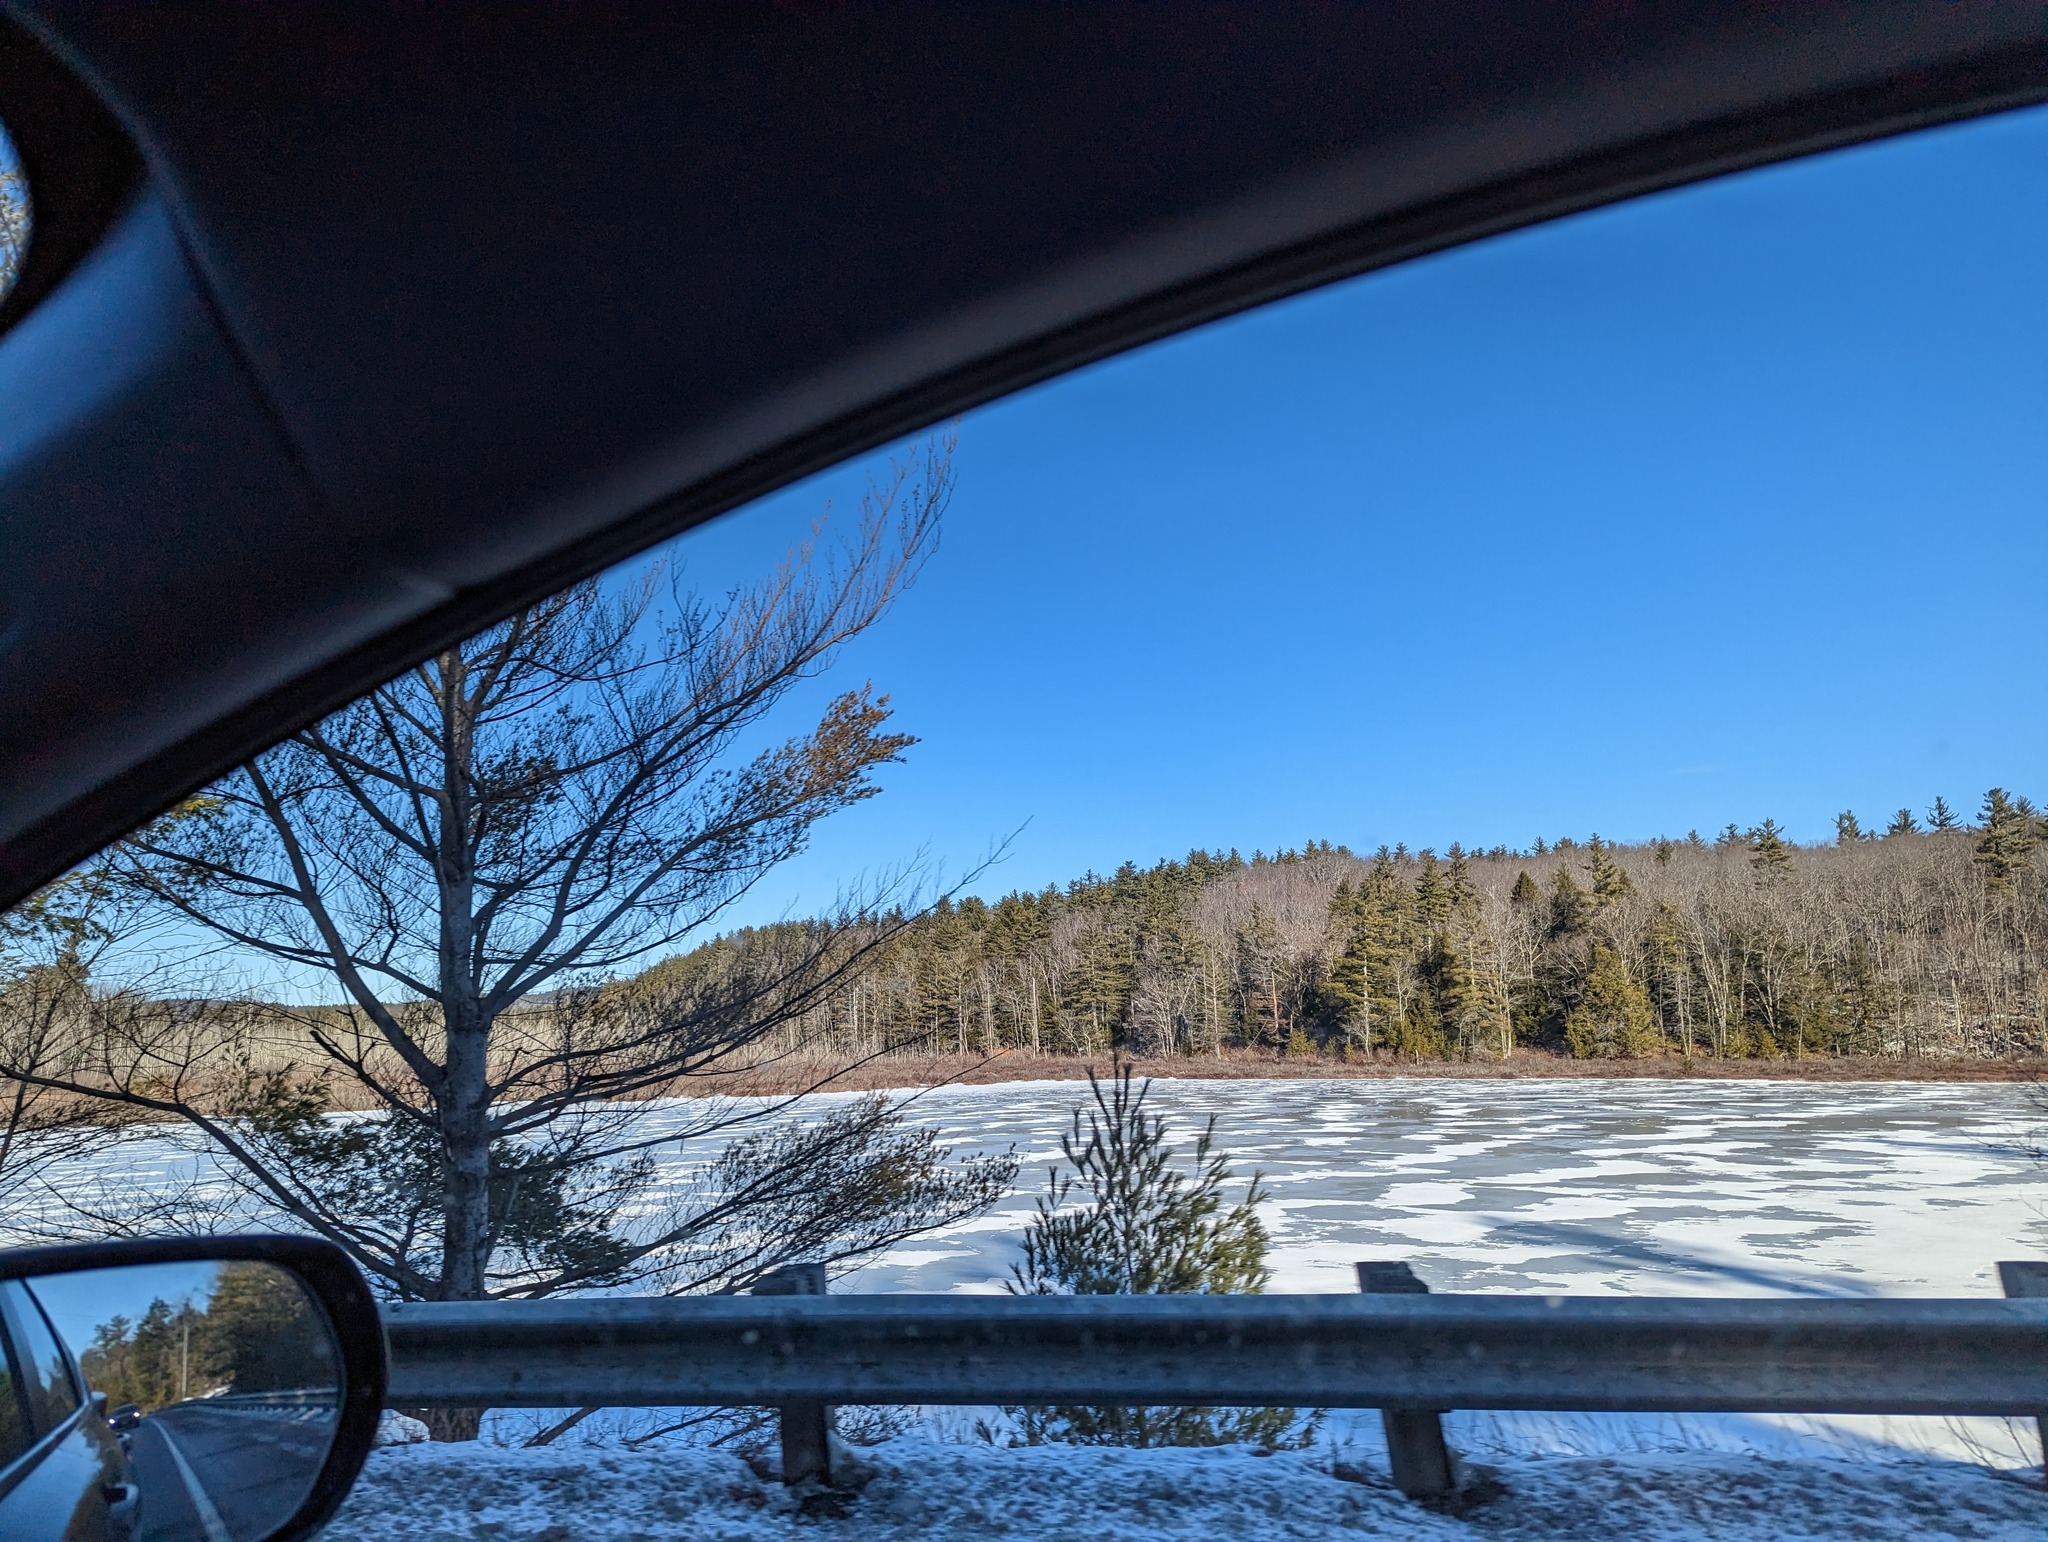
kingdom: Plantae
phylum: Tracheophyta
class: Pinopsida
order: Pinales
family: Pinaceae
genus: Pinus
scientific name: Pinus strobus
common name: Weymouth pine
